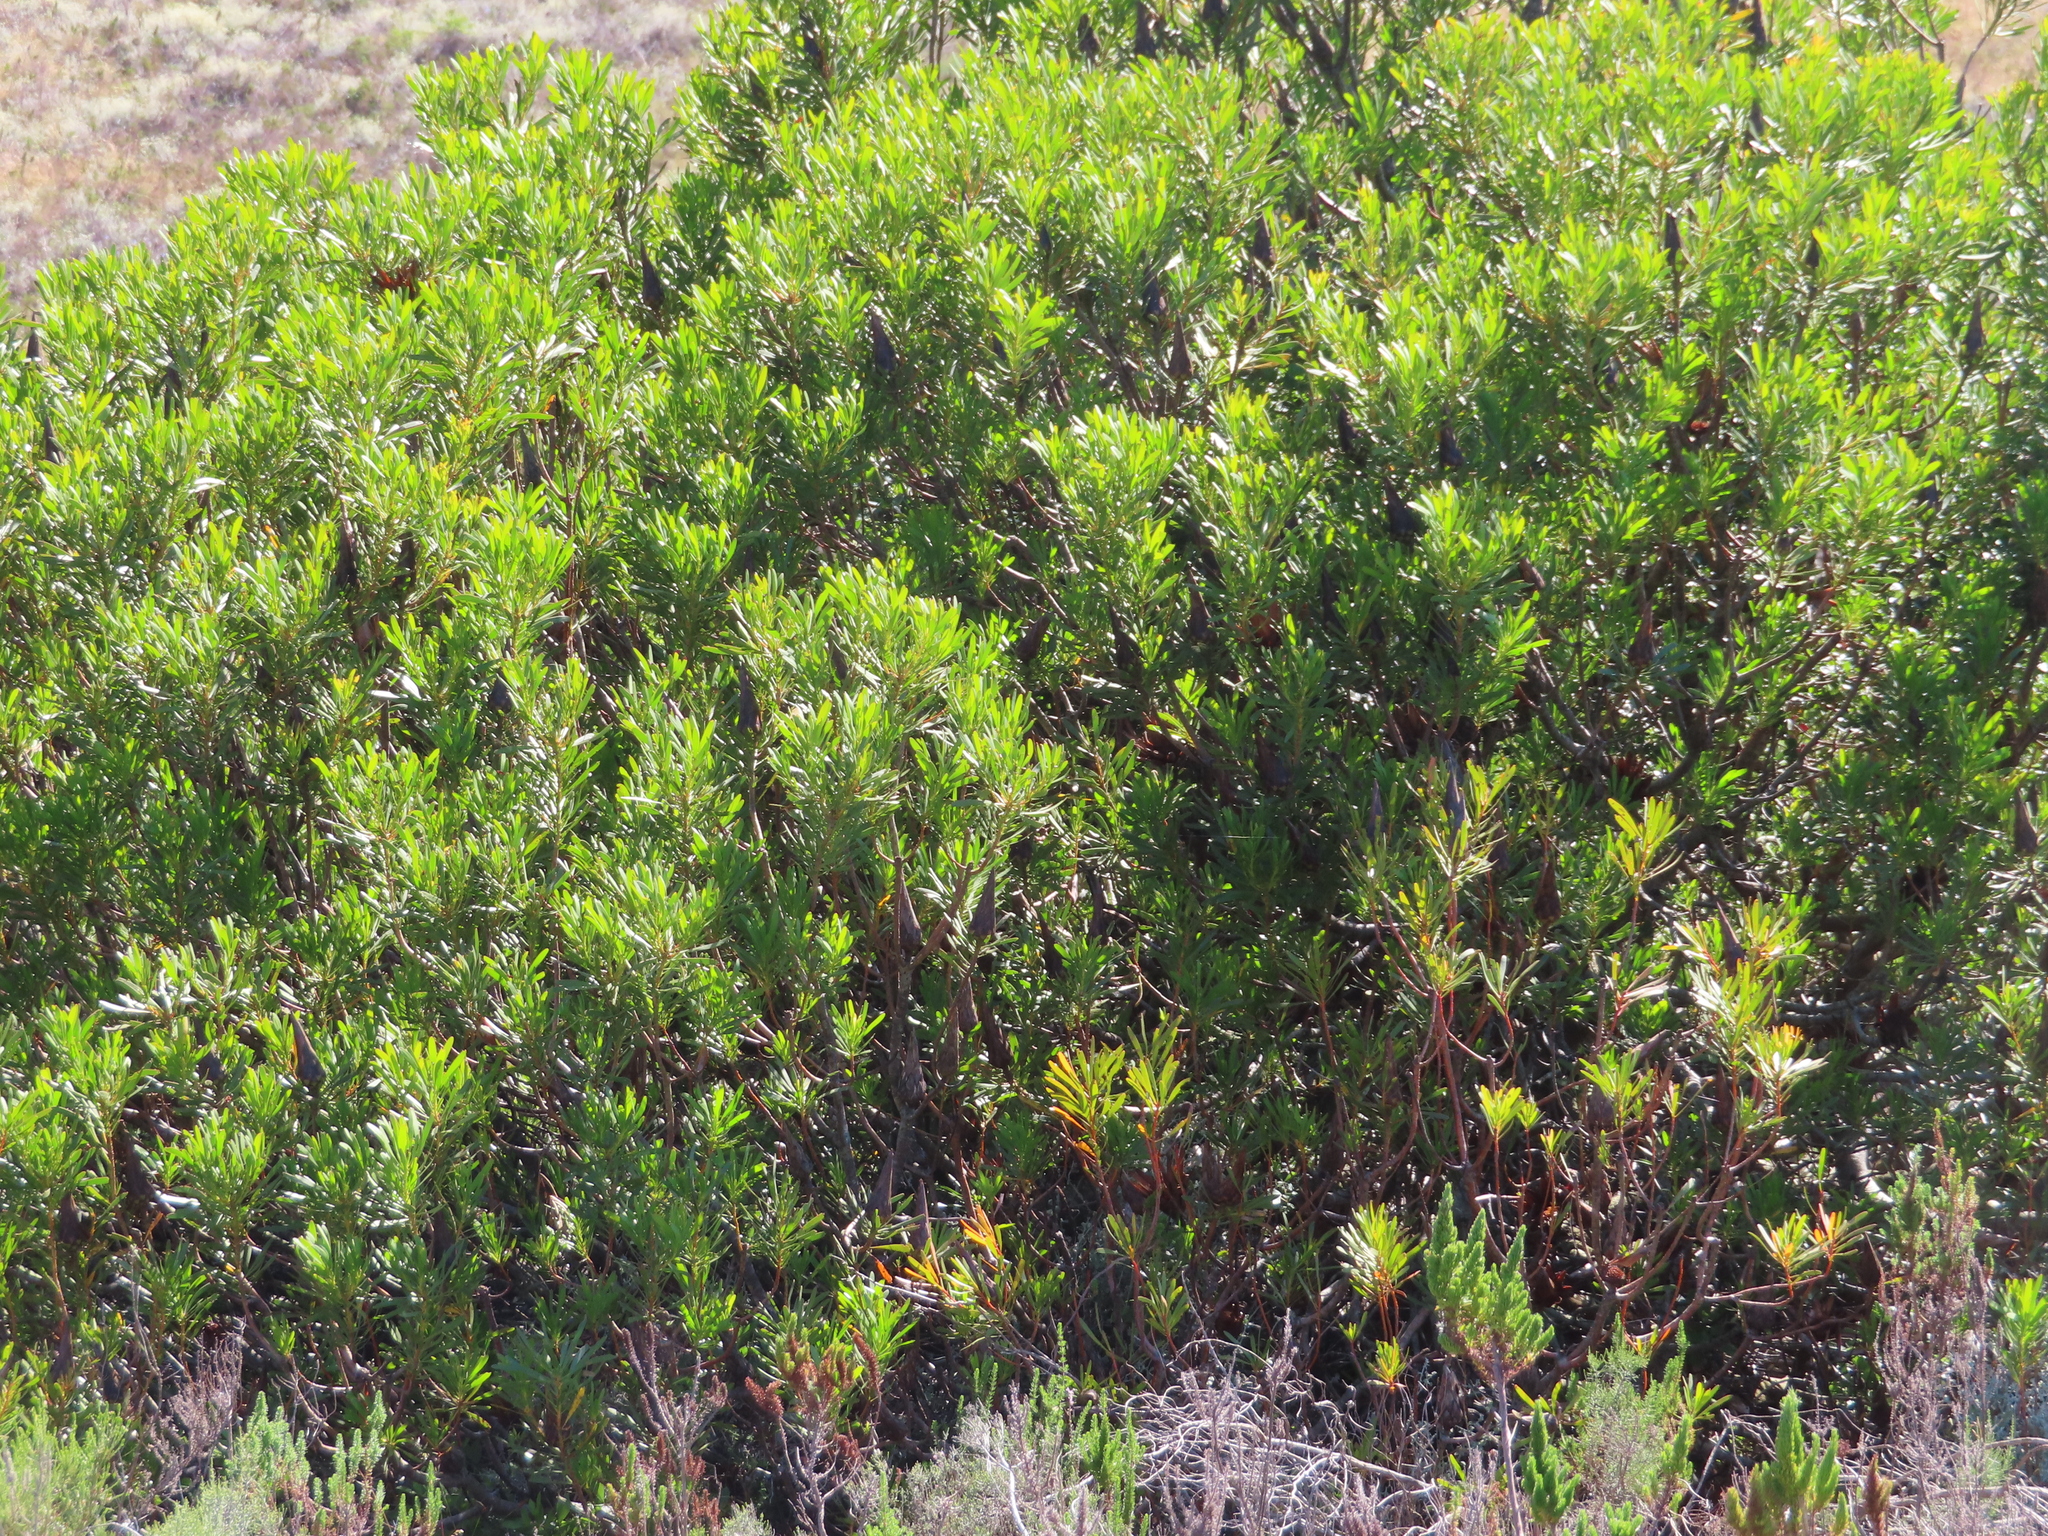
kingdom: Plantae
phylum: Tracheophyta
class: Magnoliopsida
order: Proteales
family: Proteaceae
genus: Protea
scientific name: Protea repens
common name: Sugarbush
